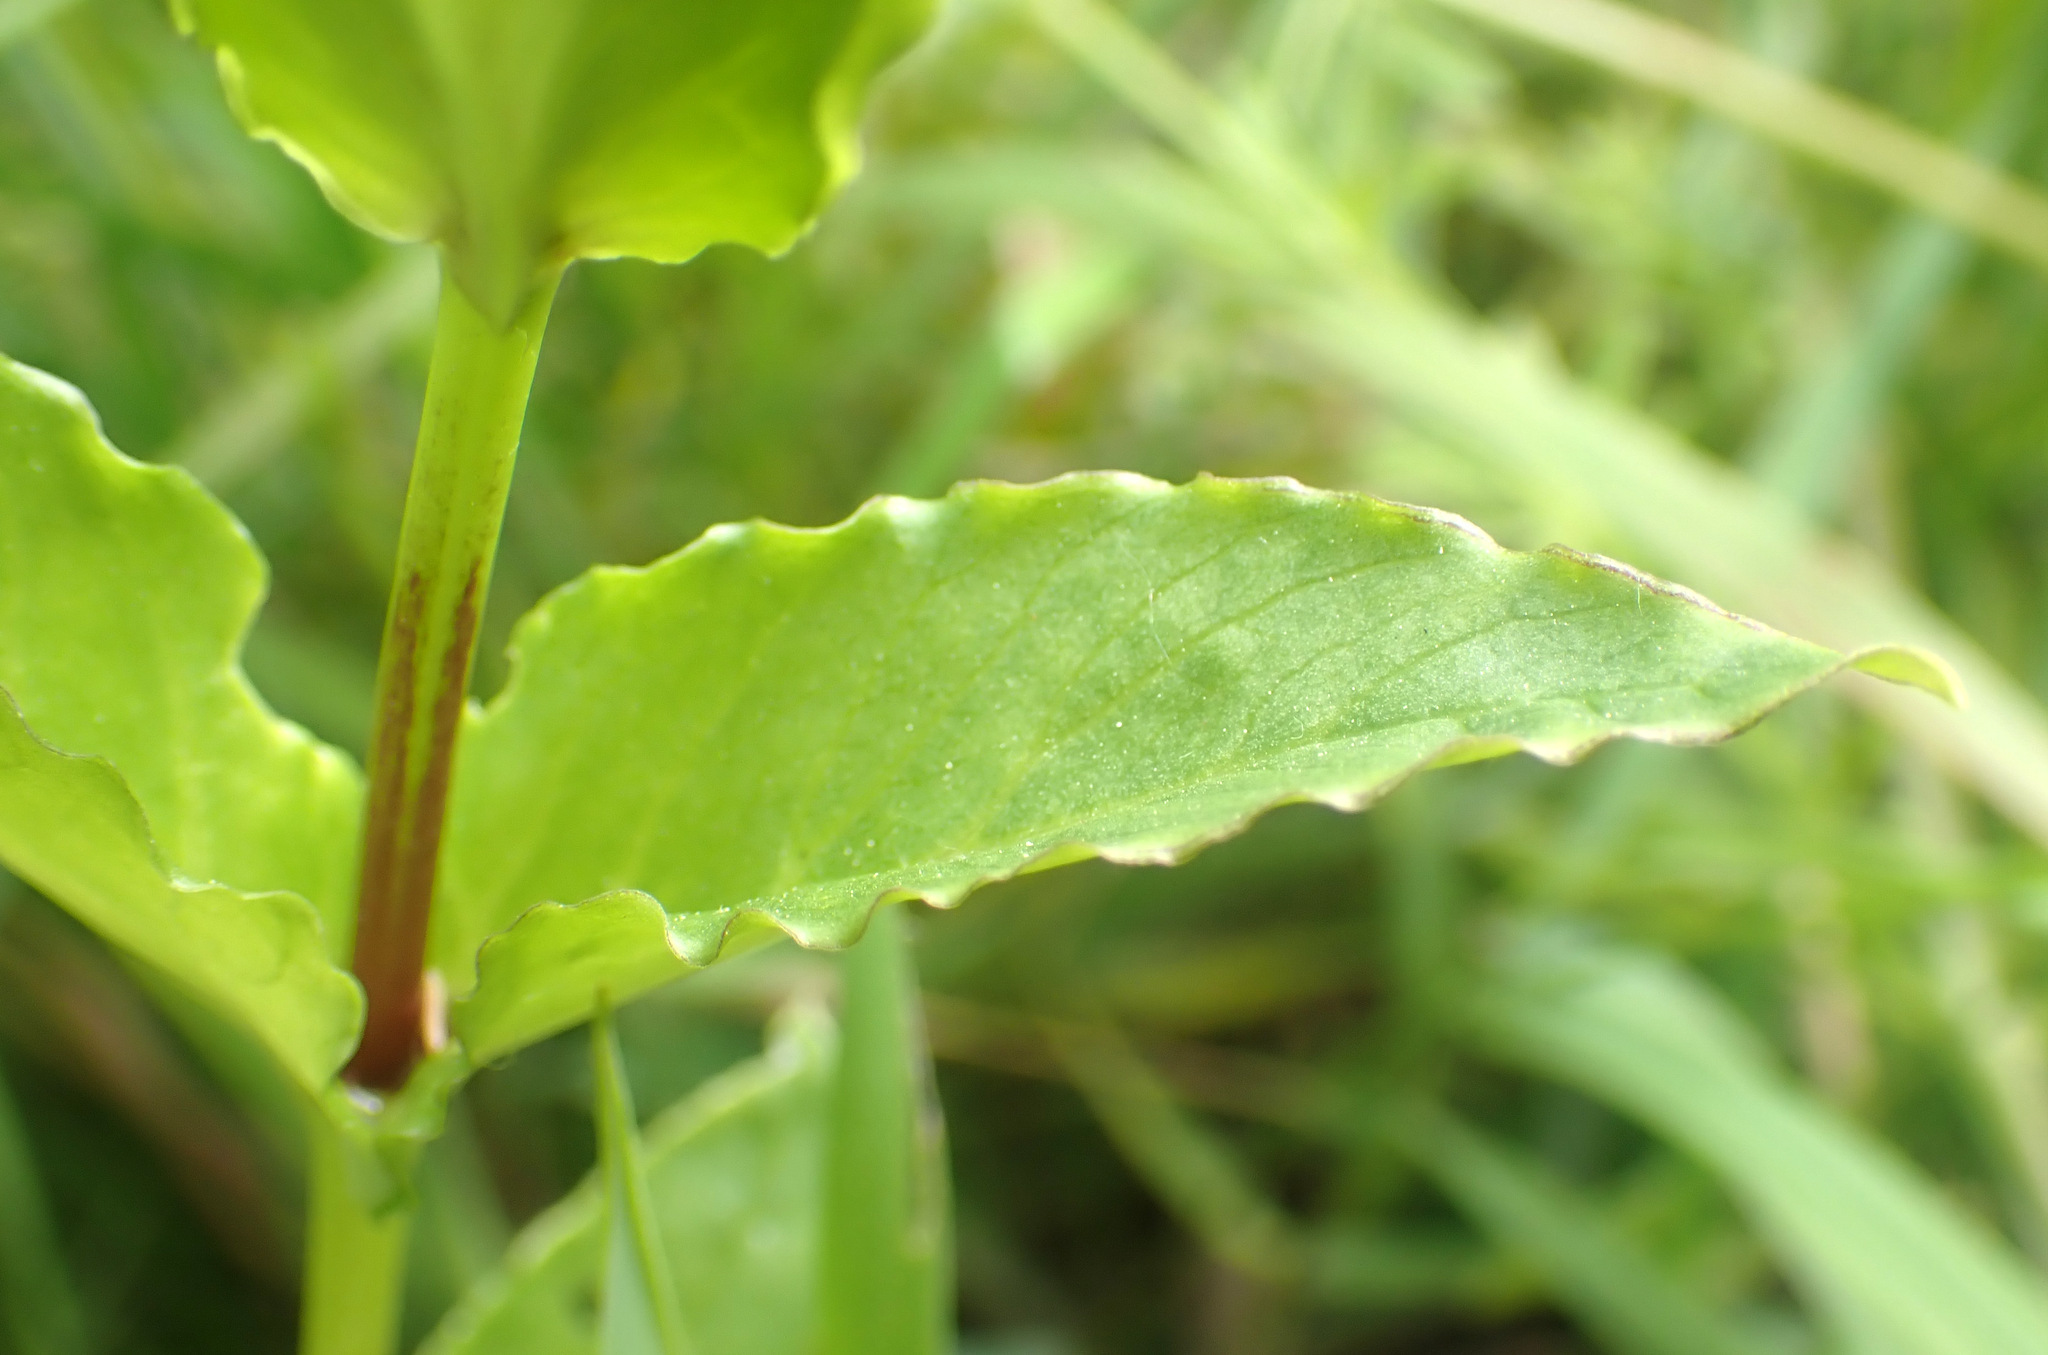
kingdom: Plantae
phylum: Tracheophyta
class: Magnoliopsida
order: Caryophyllales
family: Caryophyllaceae
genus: Stellaria
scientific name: Stellaria aquatica
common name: Water chickweed
